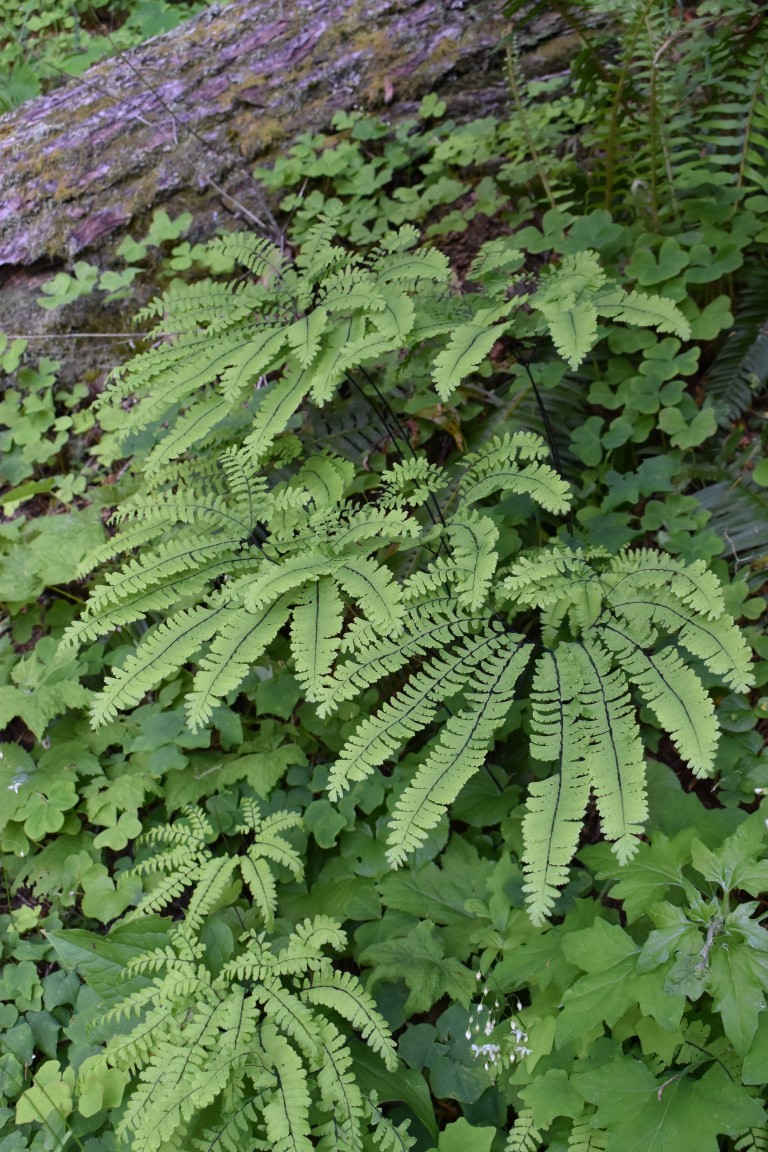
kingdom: Plantae
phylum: Tracheophyta
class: Polypodiopsida
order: Polypodiales
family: Pteridaceae
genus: Adiantum
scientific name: Adiantum aleuticum
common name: Aleutian maidenhair fern
